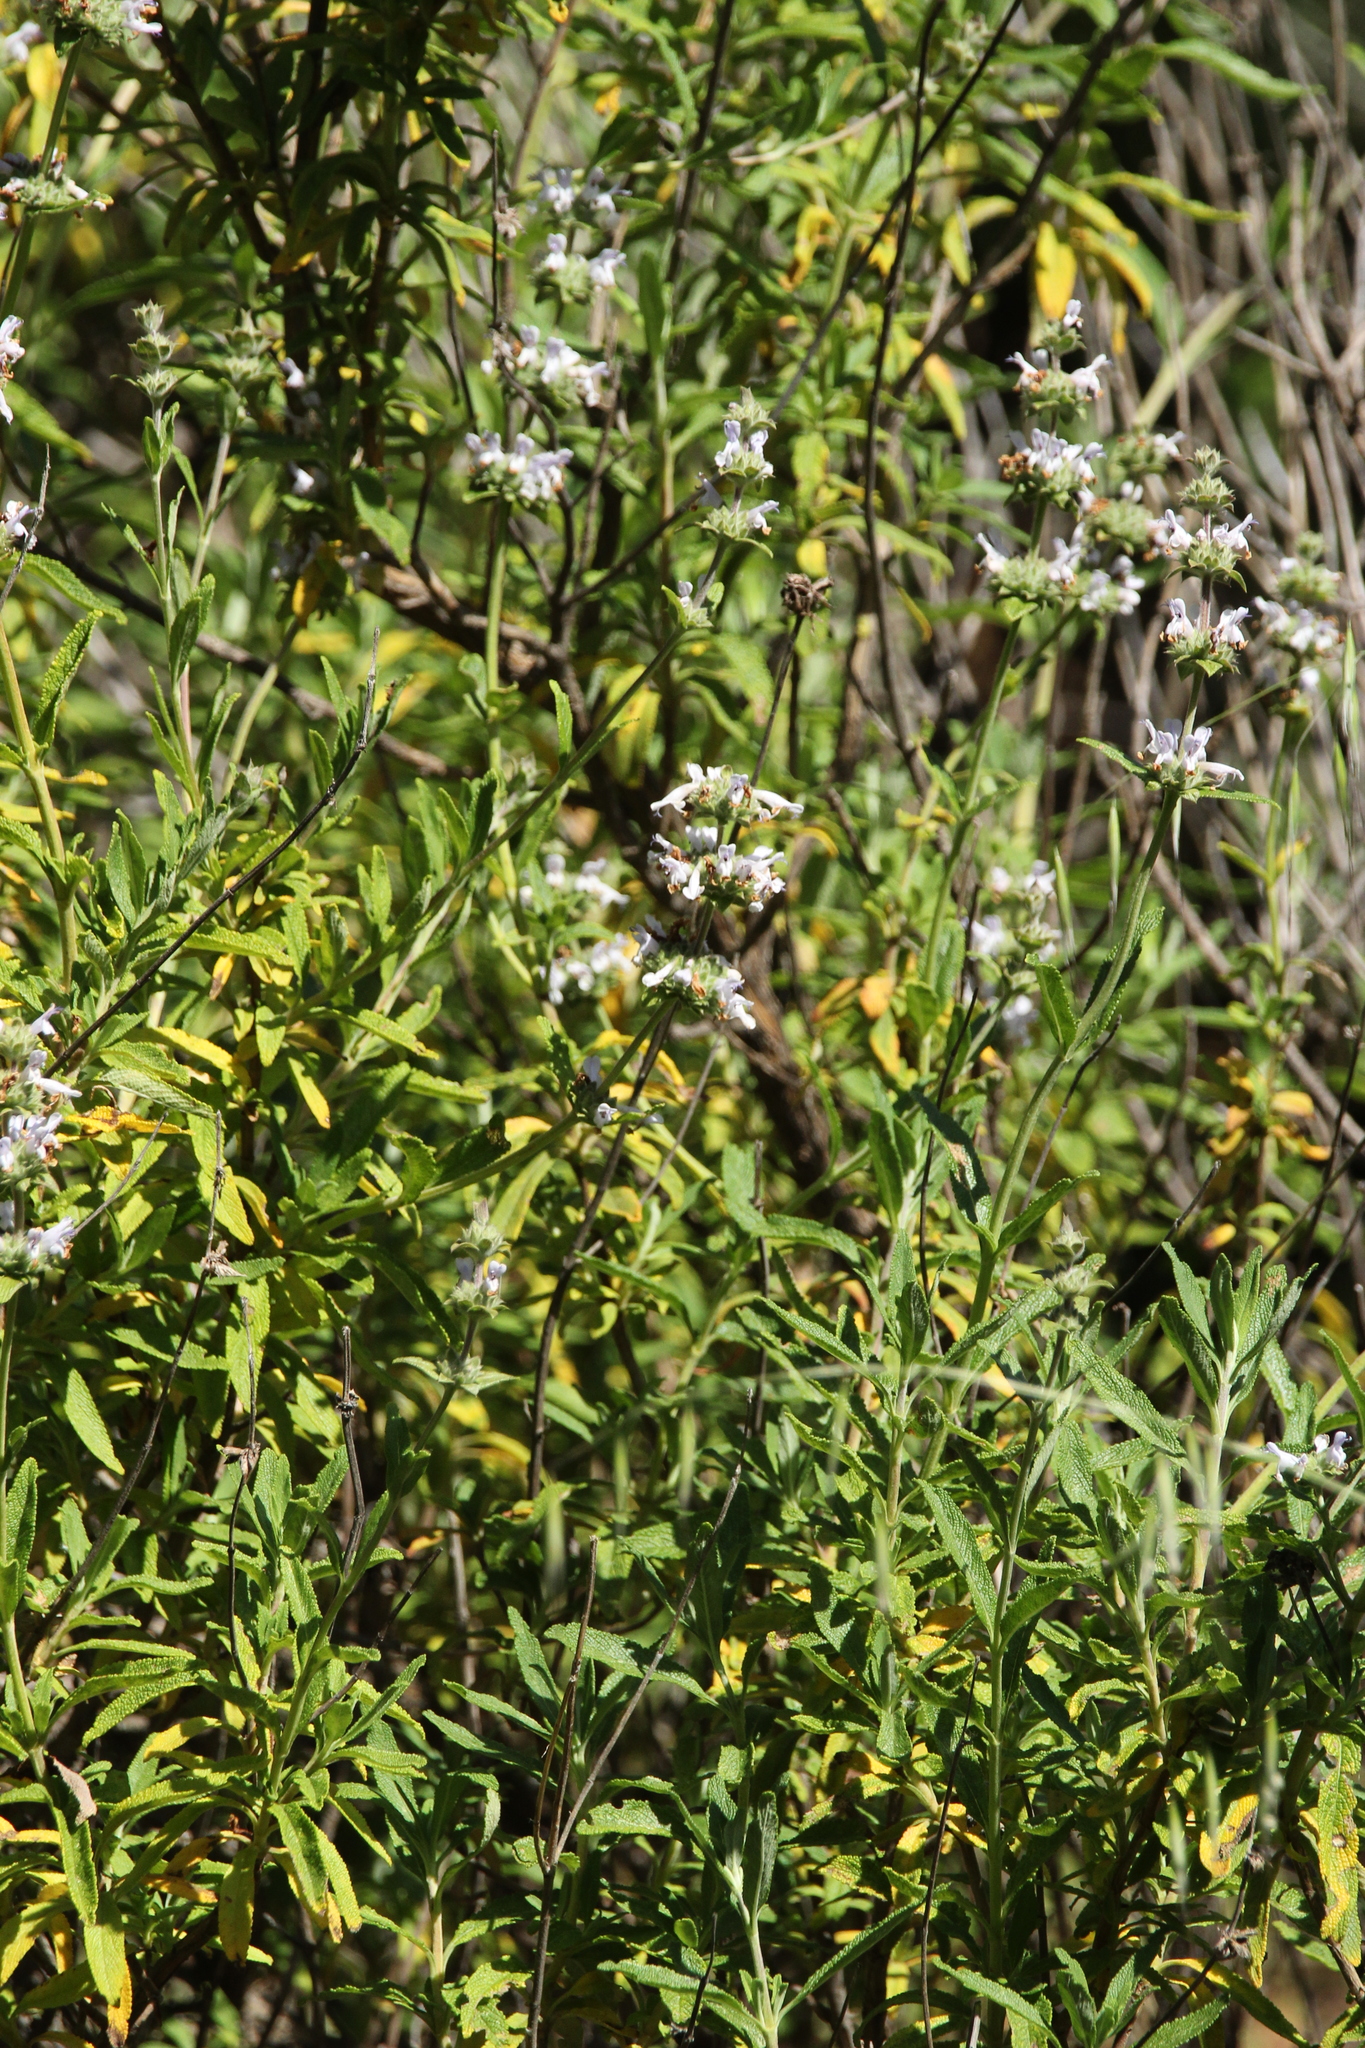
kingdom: Plantae
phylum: Tracheophyta
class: Magnoliopsida
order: Lamiales
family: Lamiaceae
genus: Salvia
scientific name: Salvia mellifera
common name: Black sage
